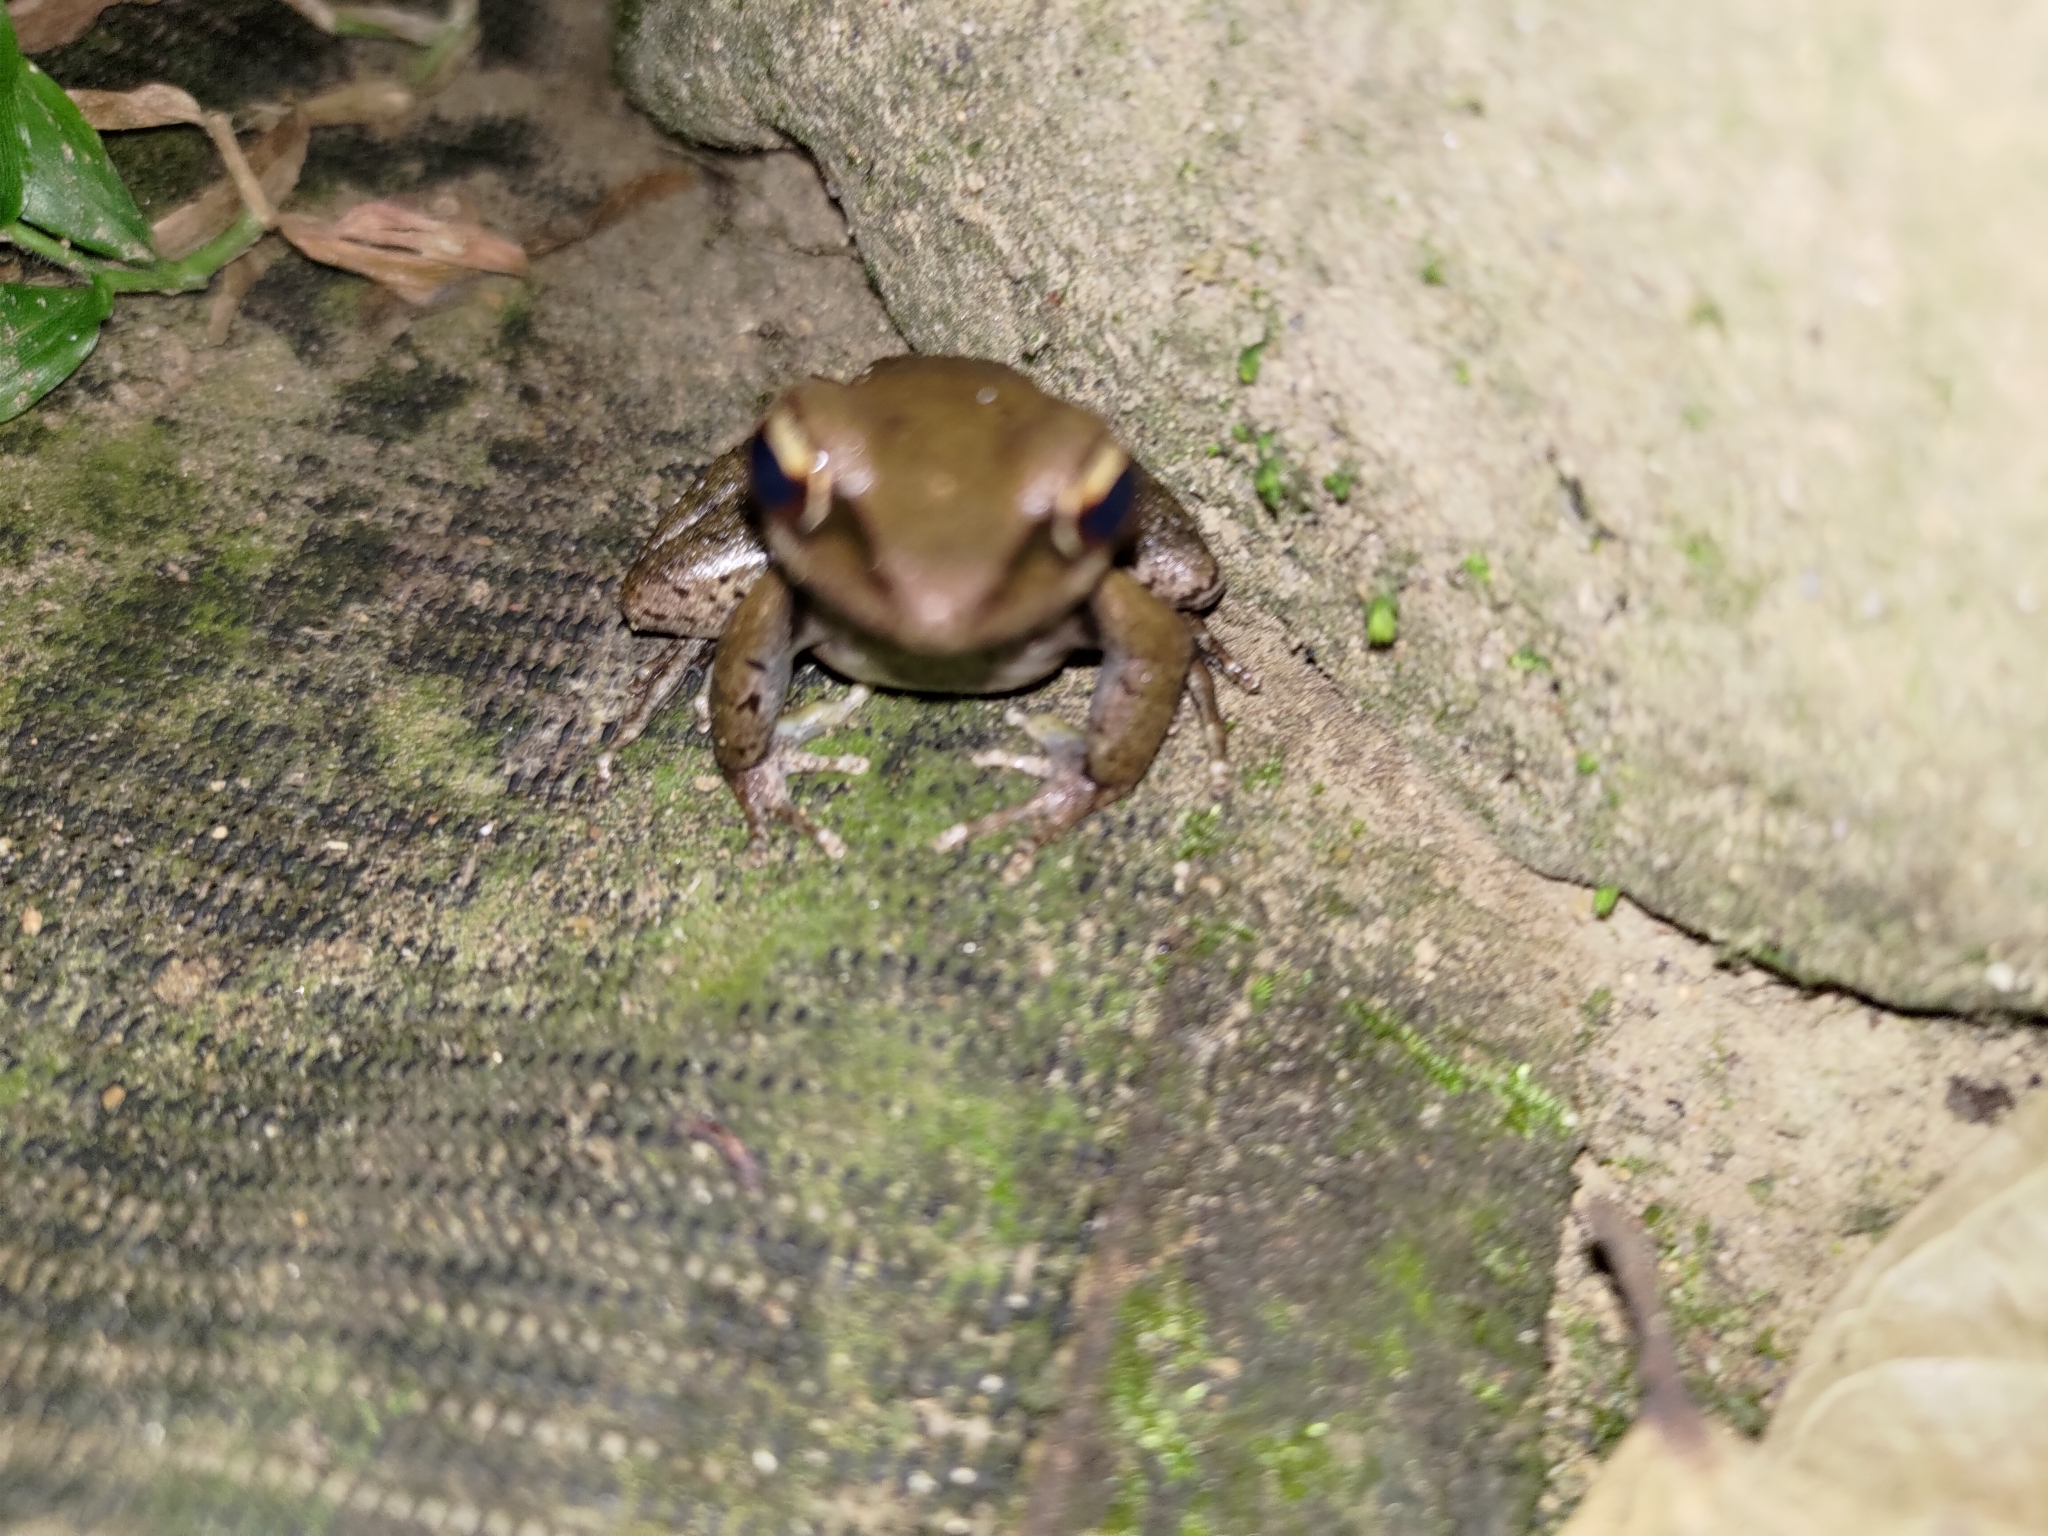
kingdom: Animalia
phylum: Chordata
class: Amphibia
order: Anura
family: Ranidae
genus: Hylarana
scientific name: Hylarana latouchii
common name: Broad-folded frog
